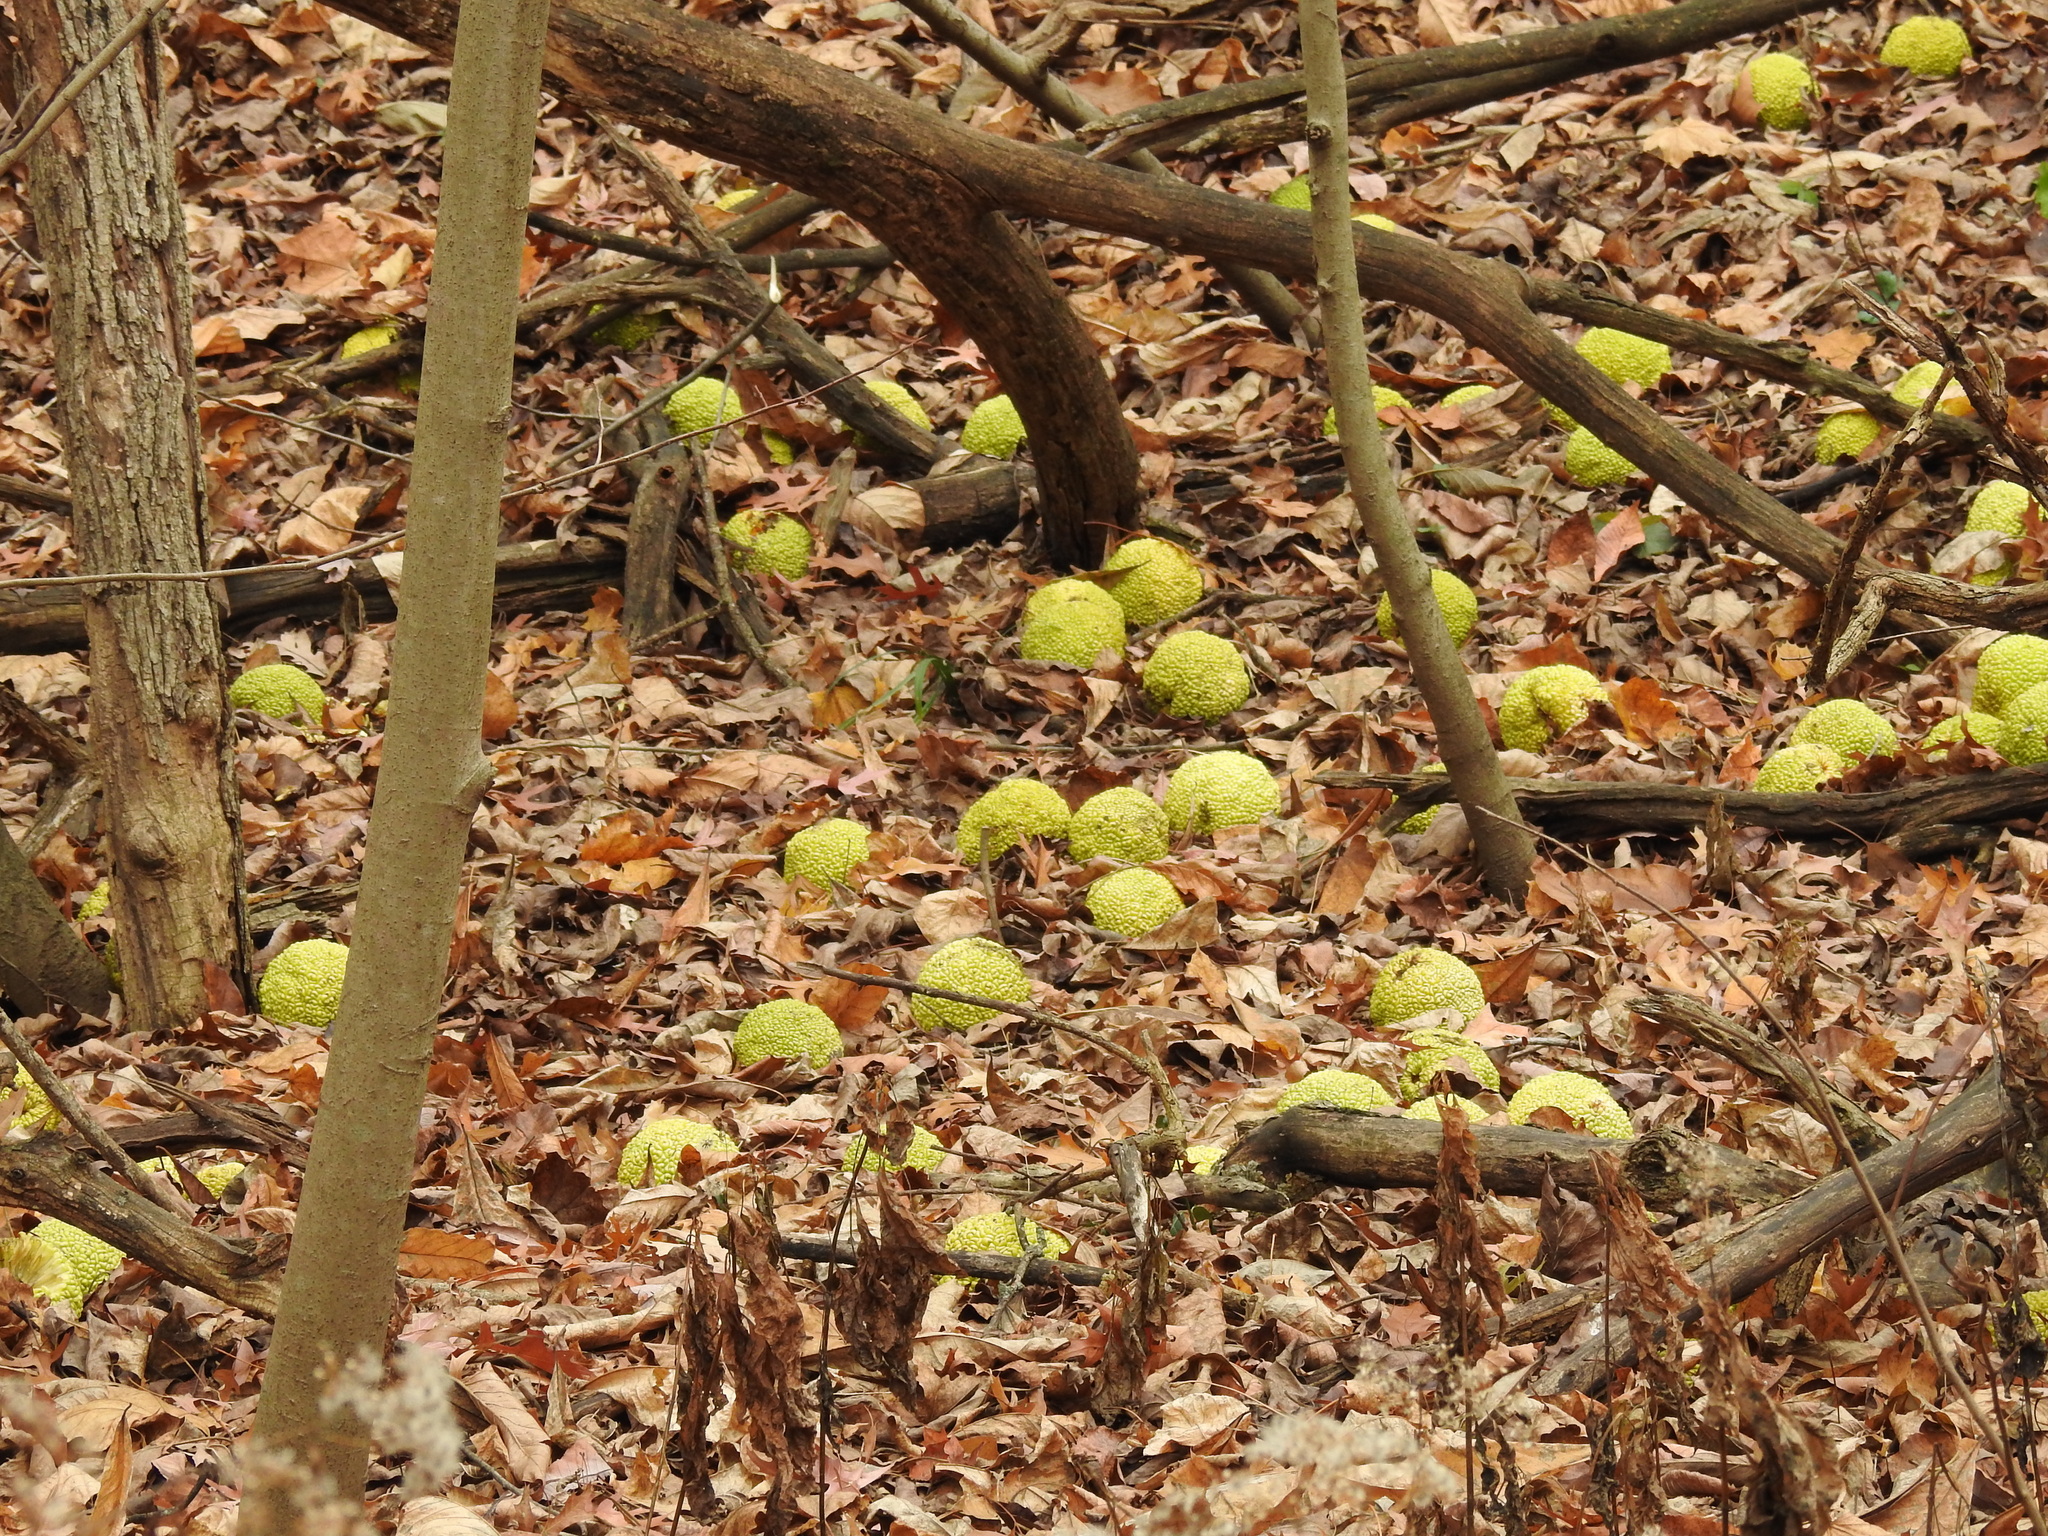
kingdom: Plantae
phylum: Tracheophyta
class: Magnoliopsida
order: Rosales
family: Moraceae
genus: Maclura
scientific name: Maclura pomifera
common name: Osage-orange
